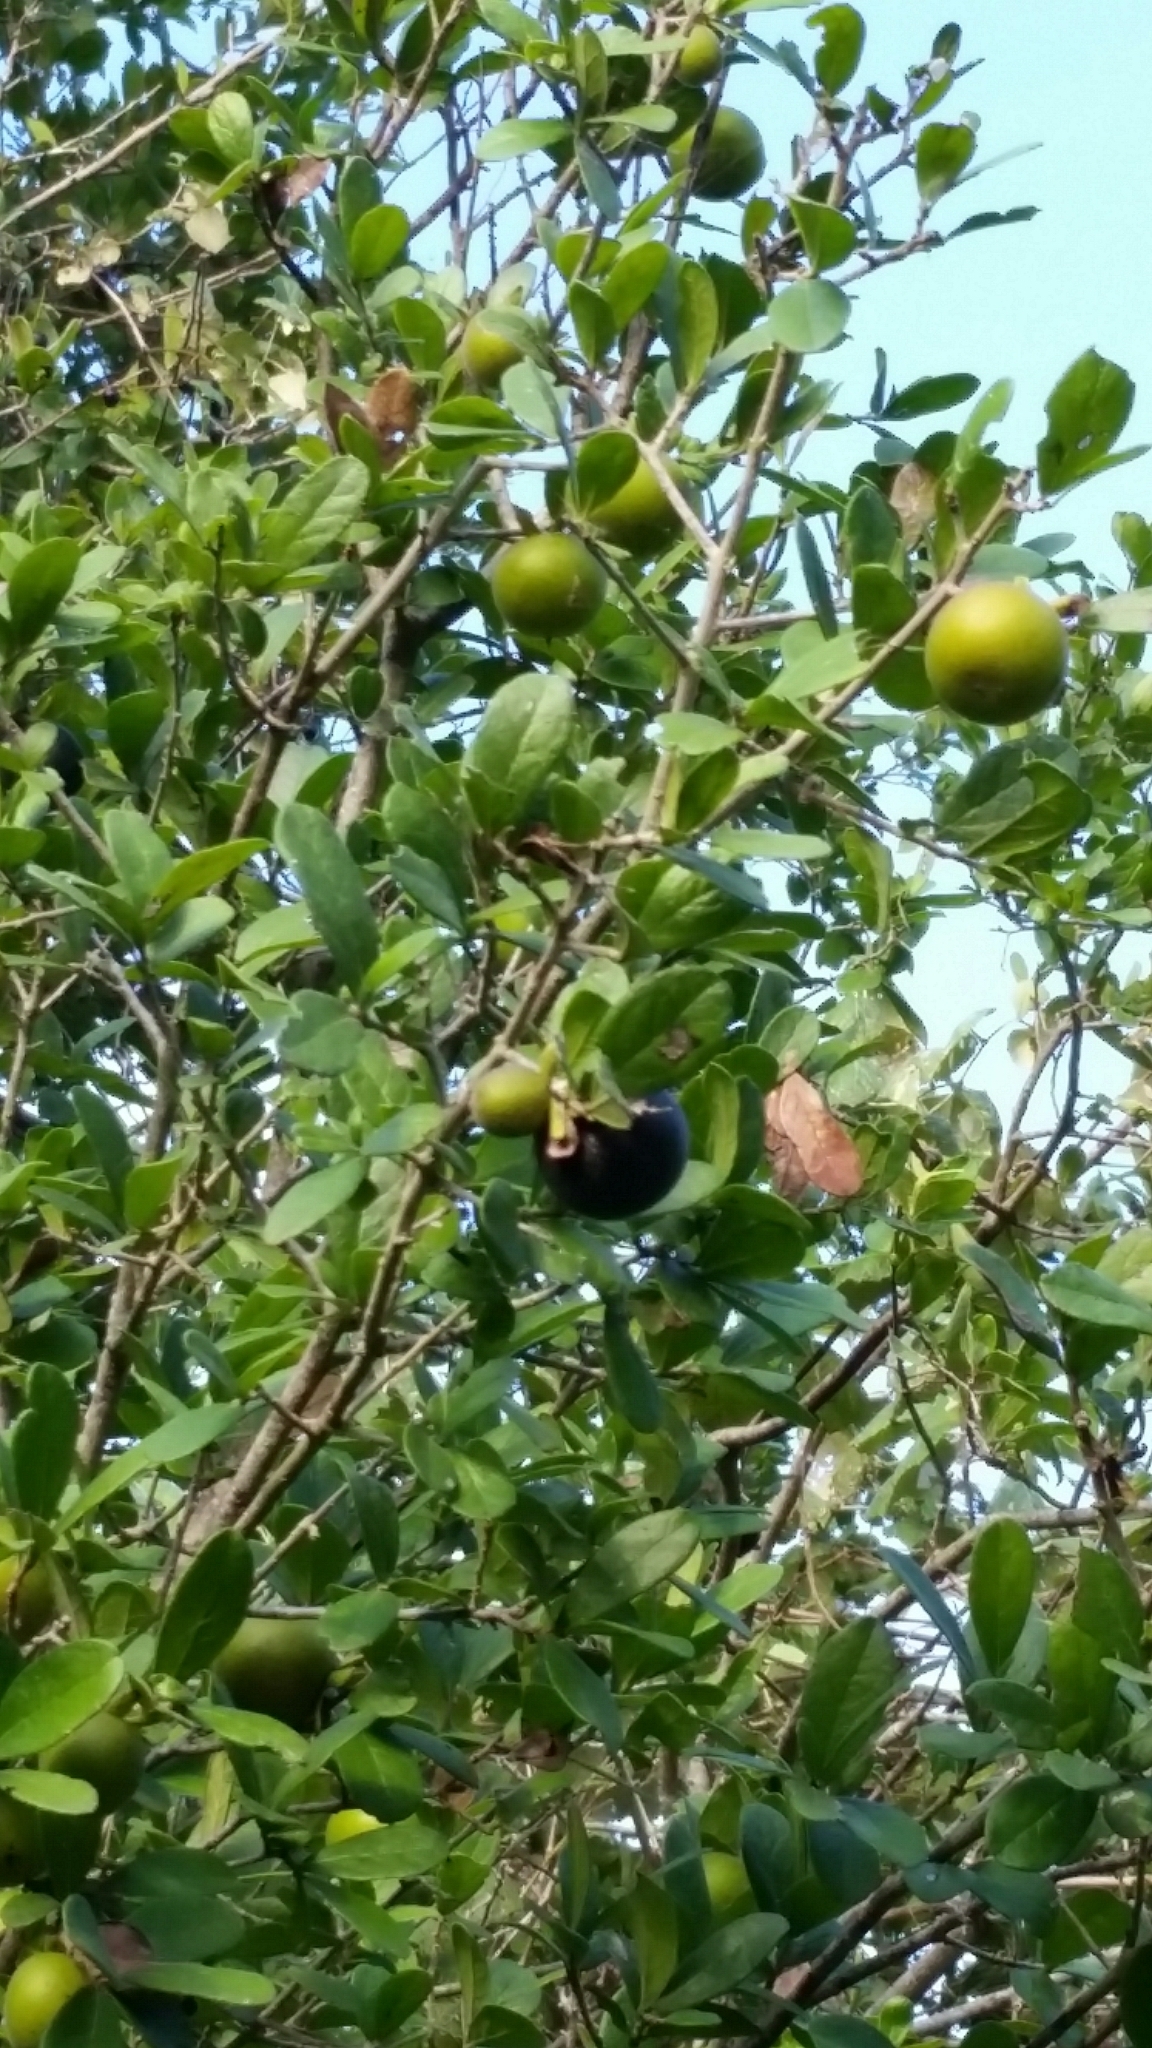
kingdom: Plantae
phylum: Tracheophyta
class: Magnoliopsida
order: Ericales
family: Ebenaceae
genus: Diospyros
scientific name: Diospyros texana
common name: Texas persimmon
